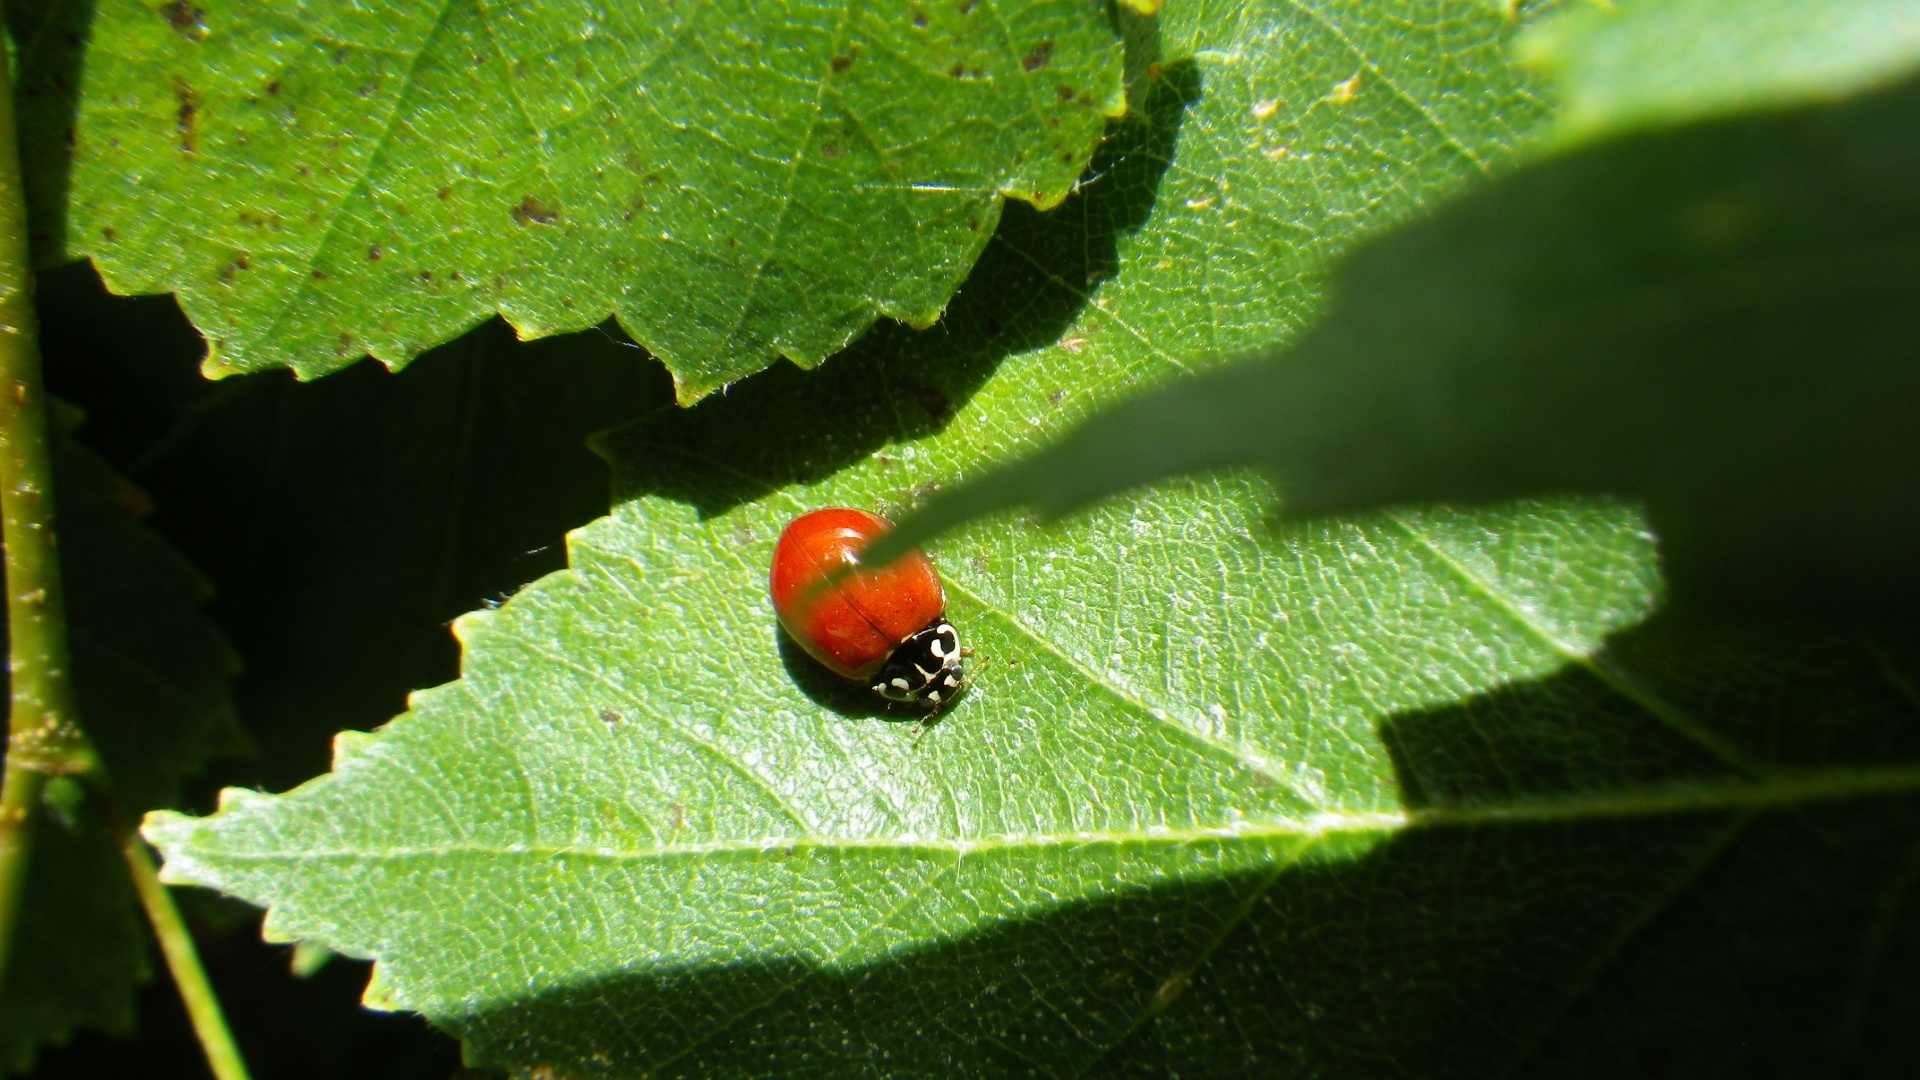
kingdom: Animalia
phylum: Arthropoda
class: Insecta
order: Coleoptera
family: Coccinellidae
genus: Cycloneda
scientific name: Cycloneda polita
